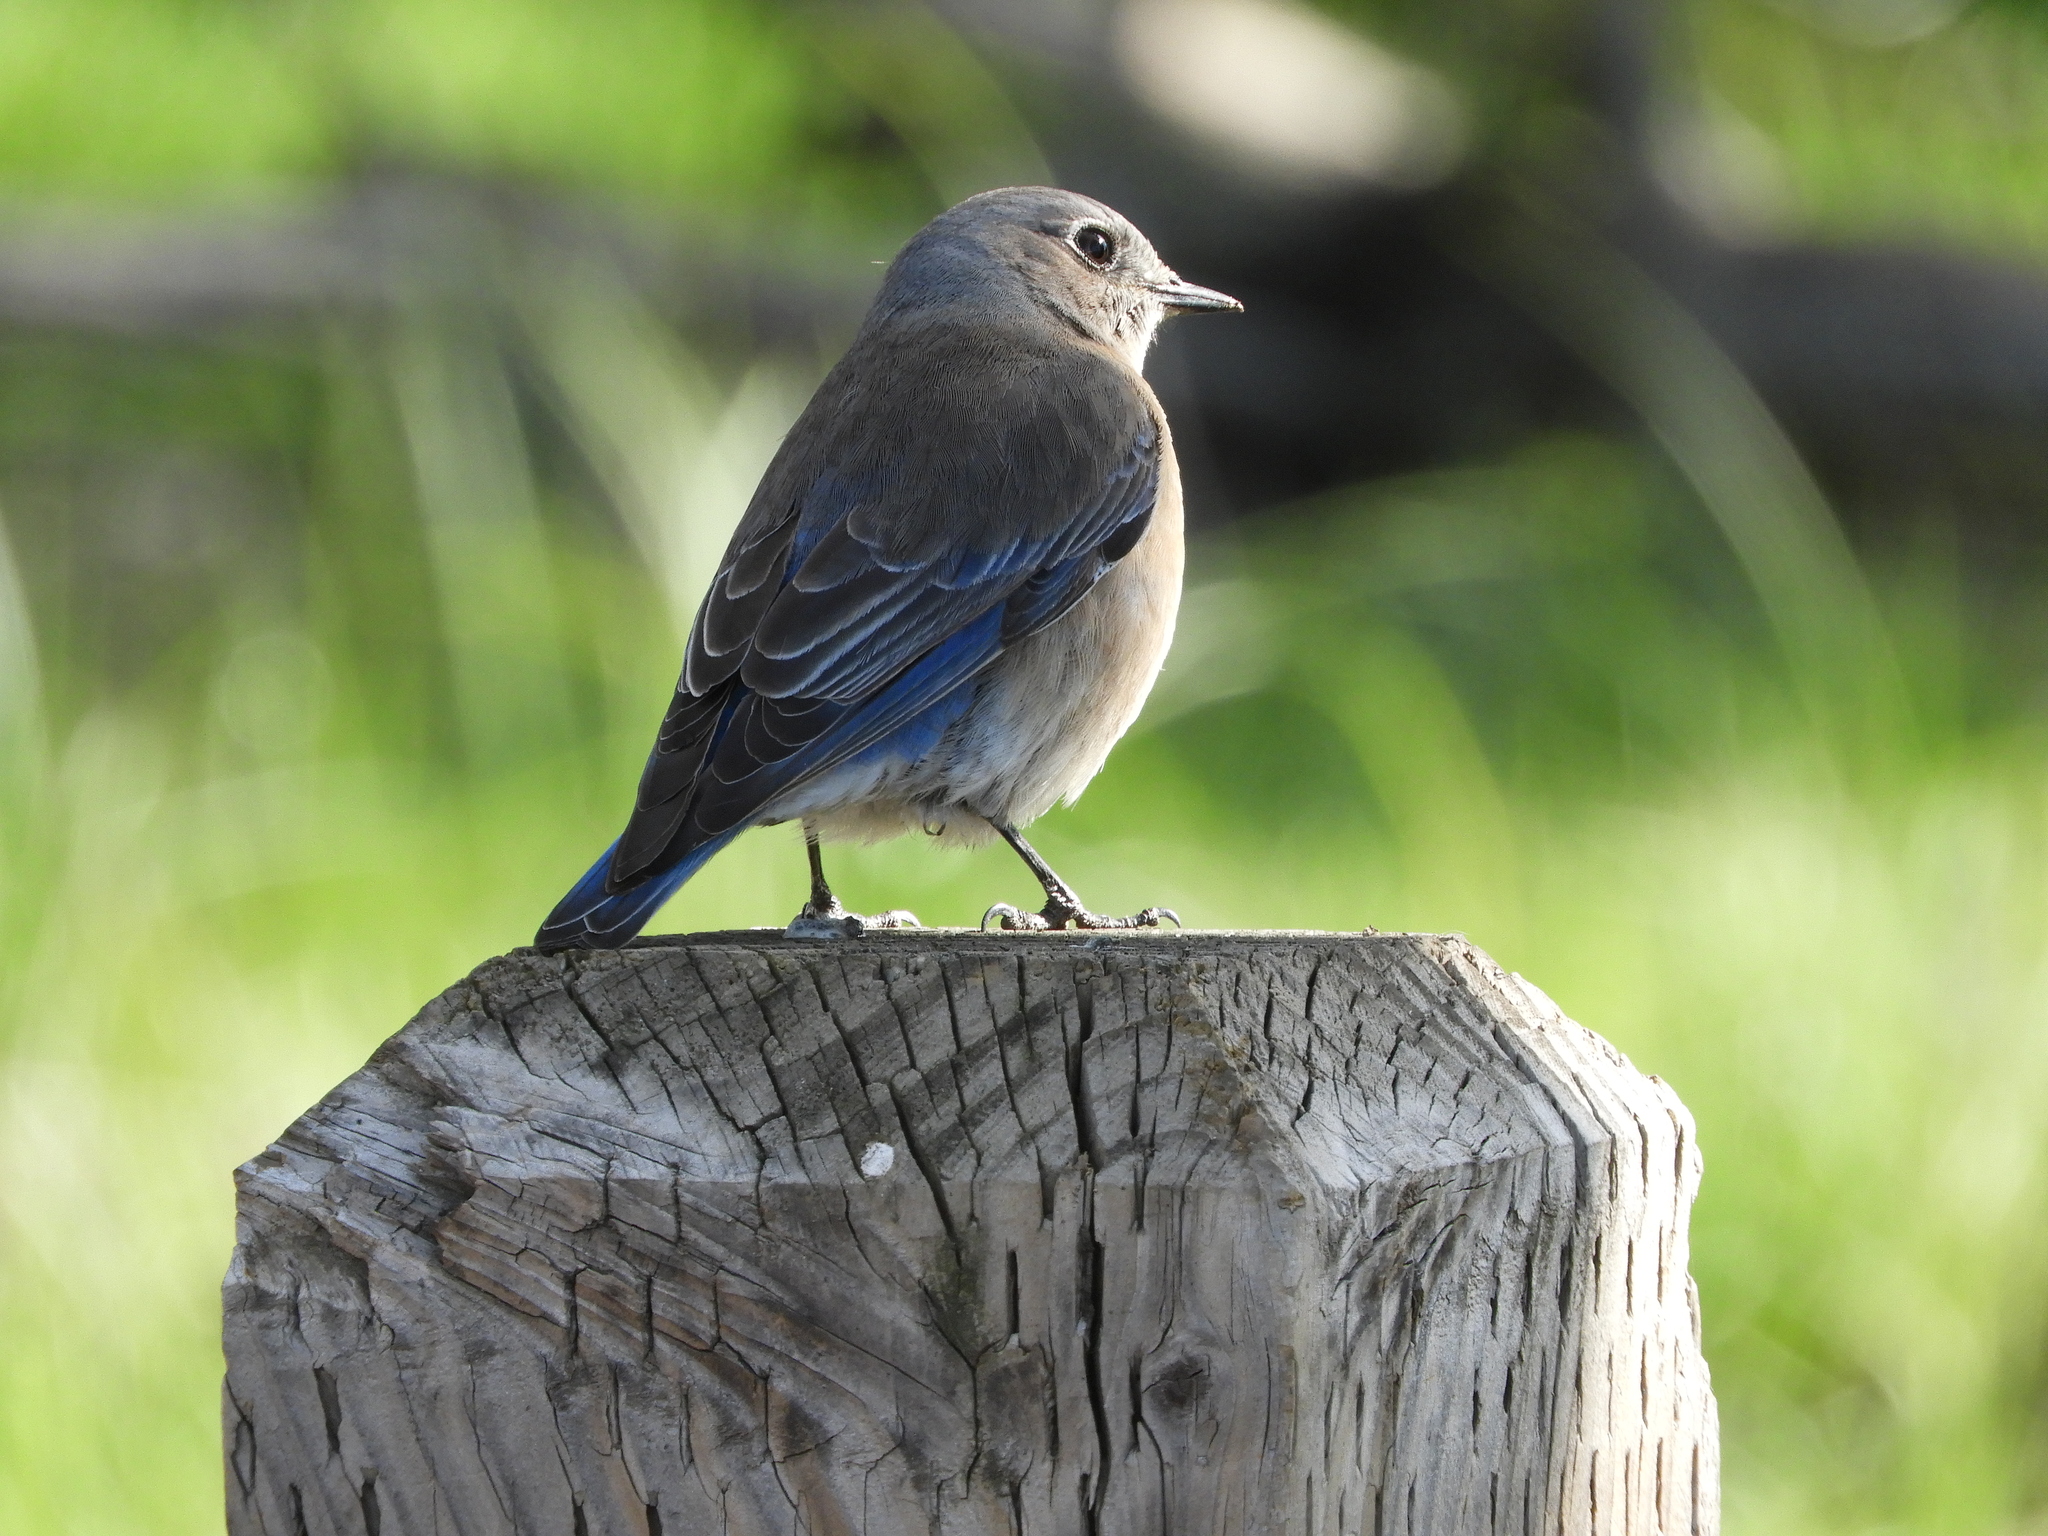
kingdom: Animalia
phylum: Chordata
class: Aves
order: Passeriformes
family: Turdidae
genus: Sialia
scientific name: Sialia mexicana
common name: Western bluebird
